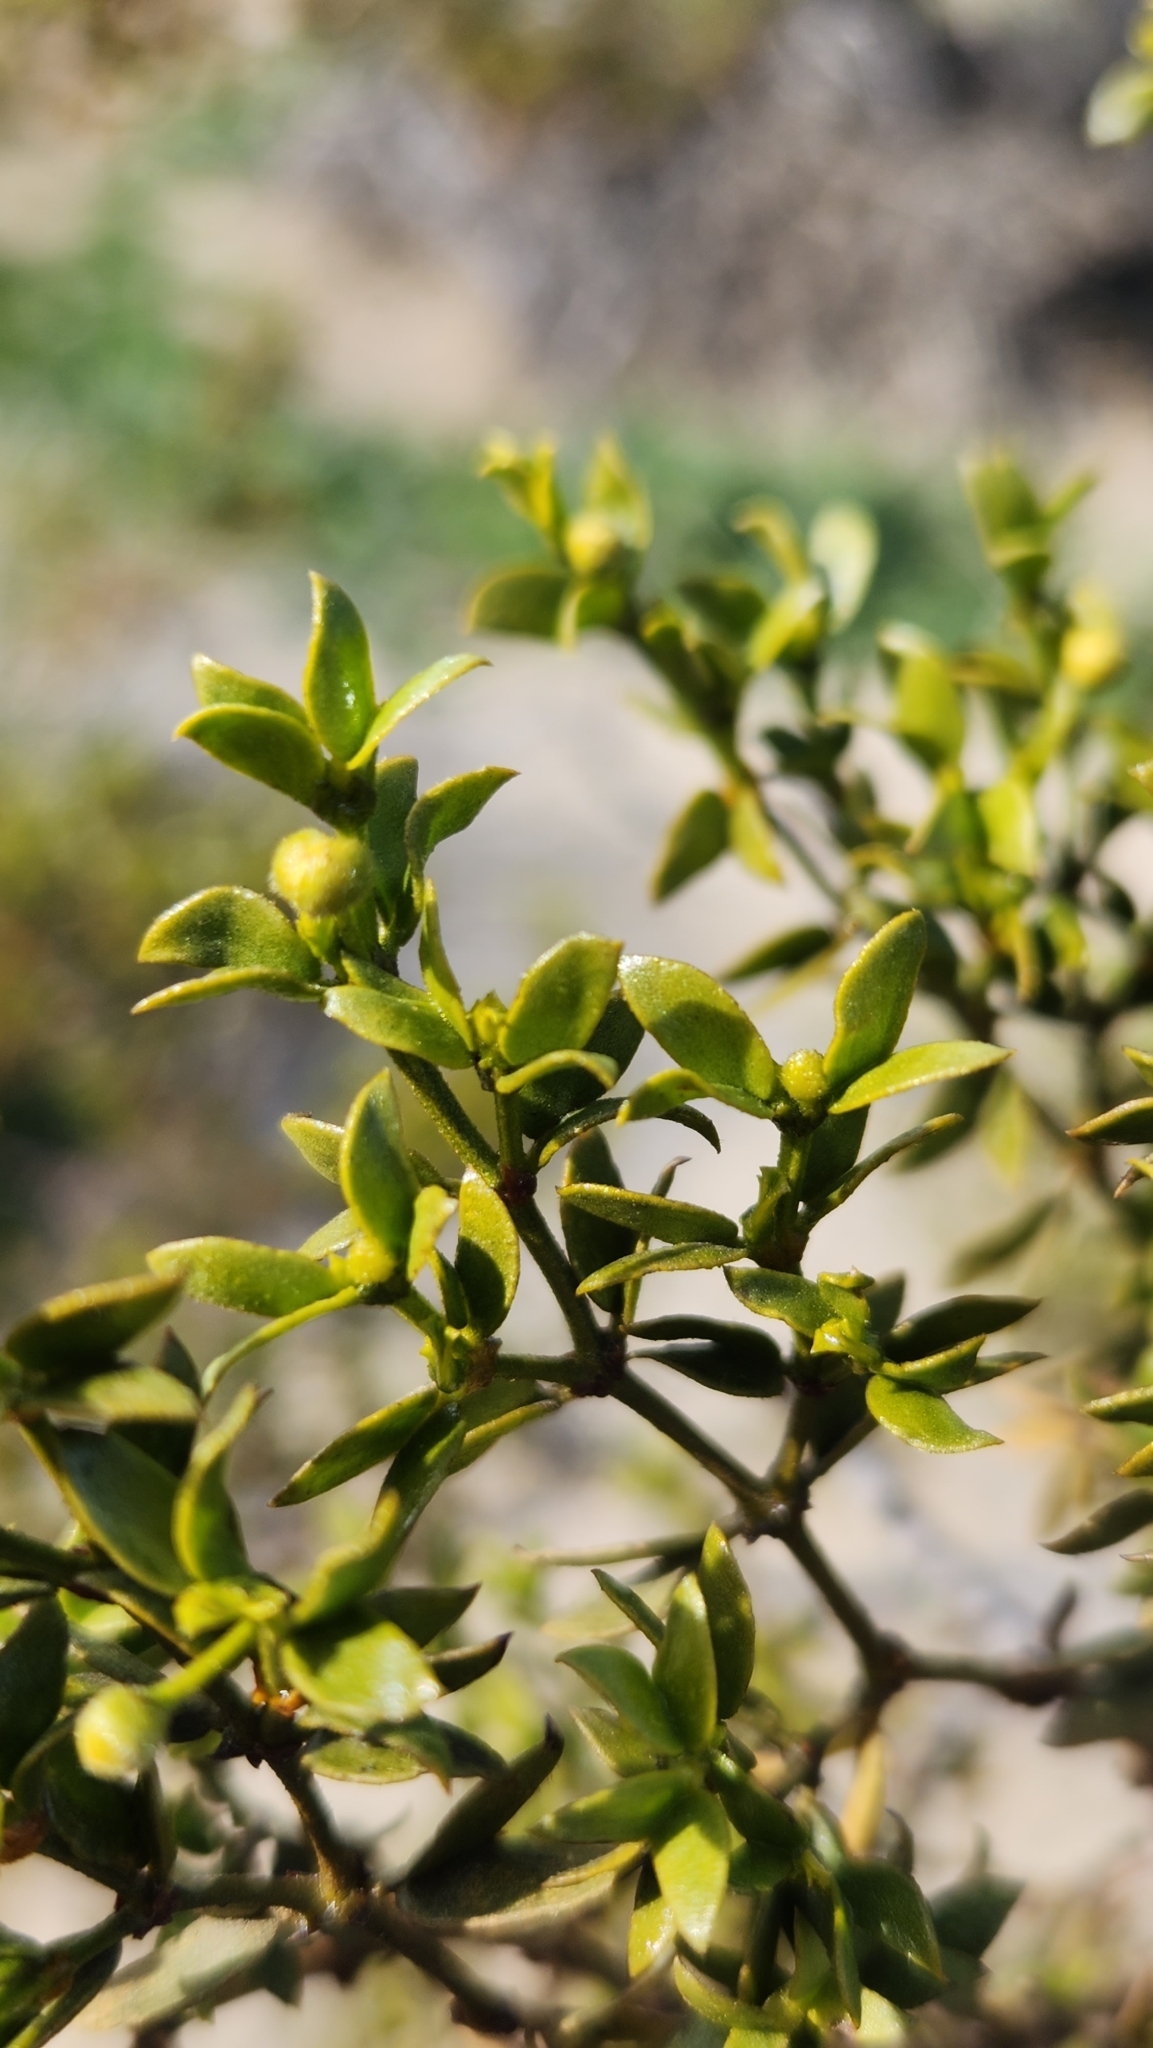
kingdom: Plantae
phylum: Tracheophyta
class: Magnoliopsida
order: Zygophyllales
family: Zygophyllaceae
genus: Larrea
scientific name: Larrea tridentata
